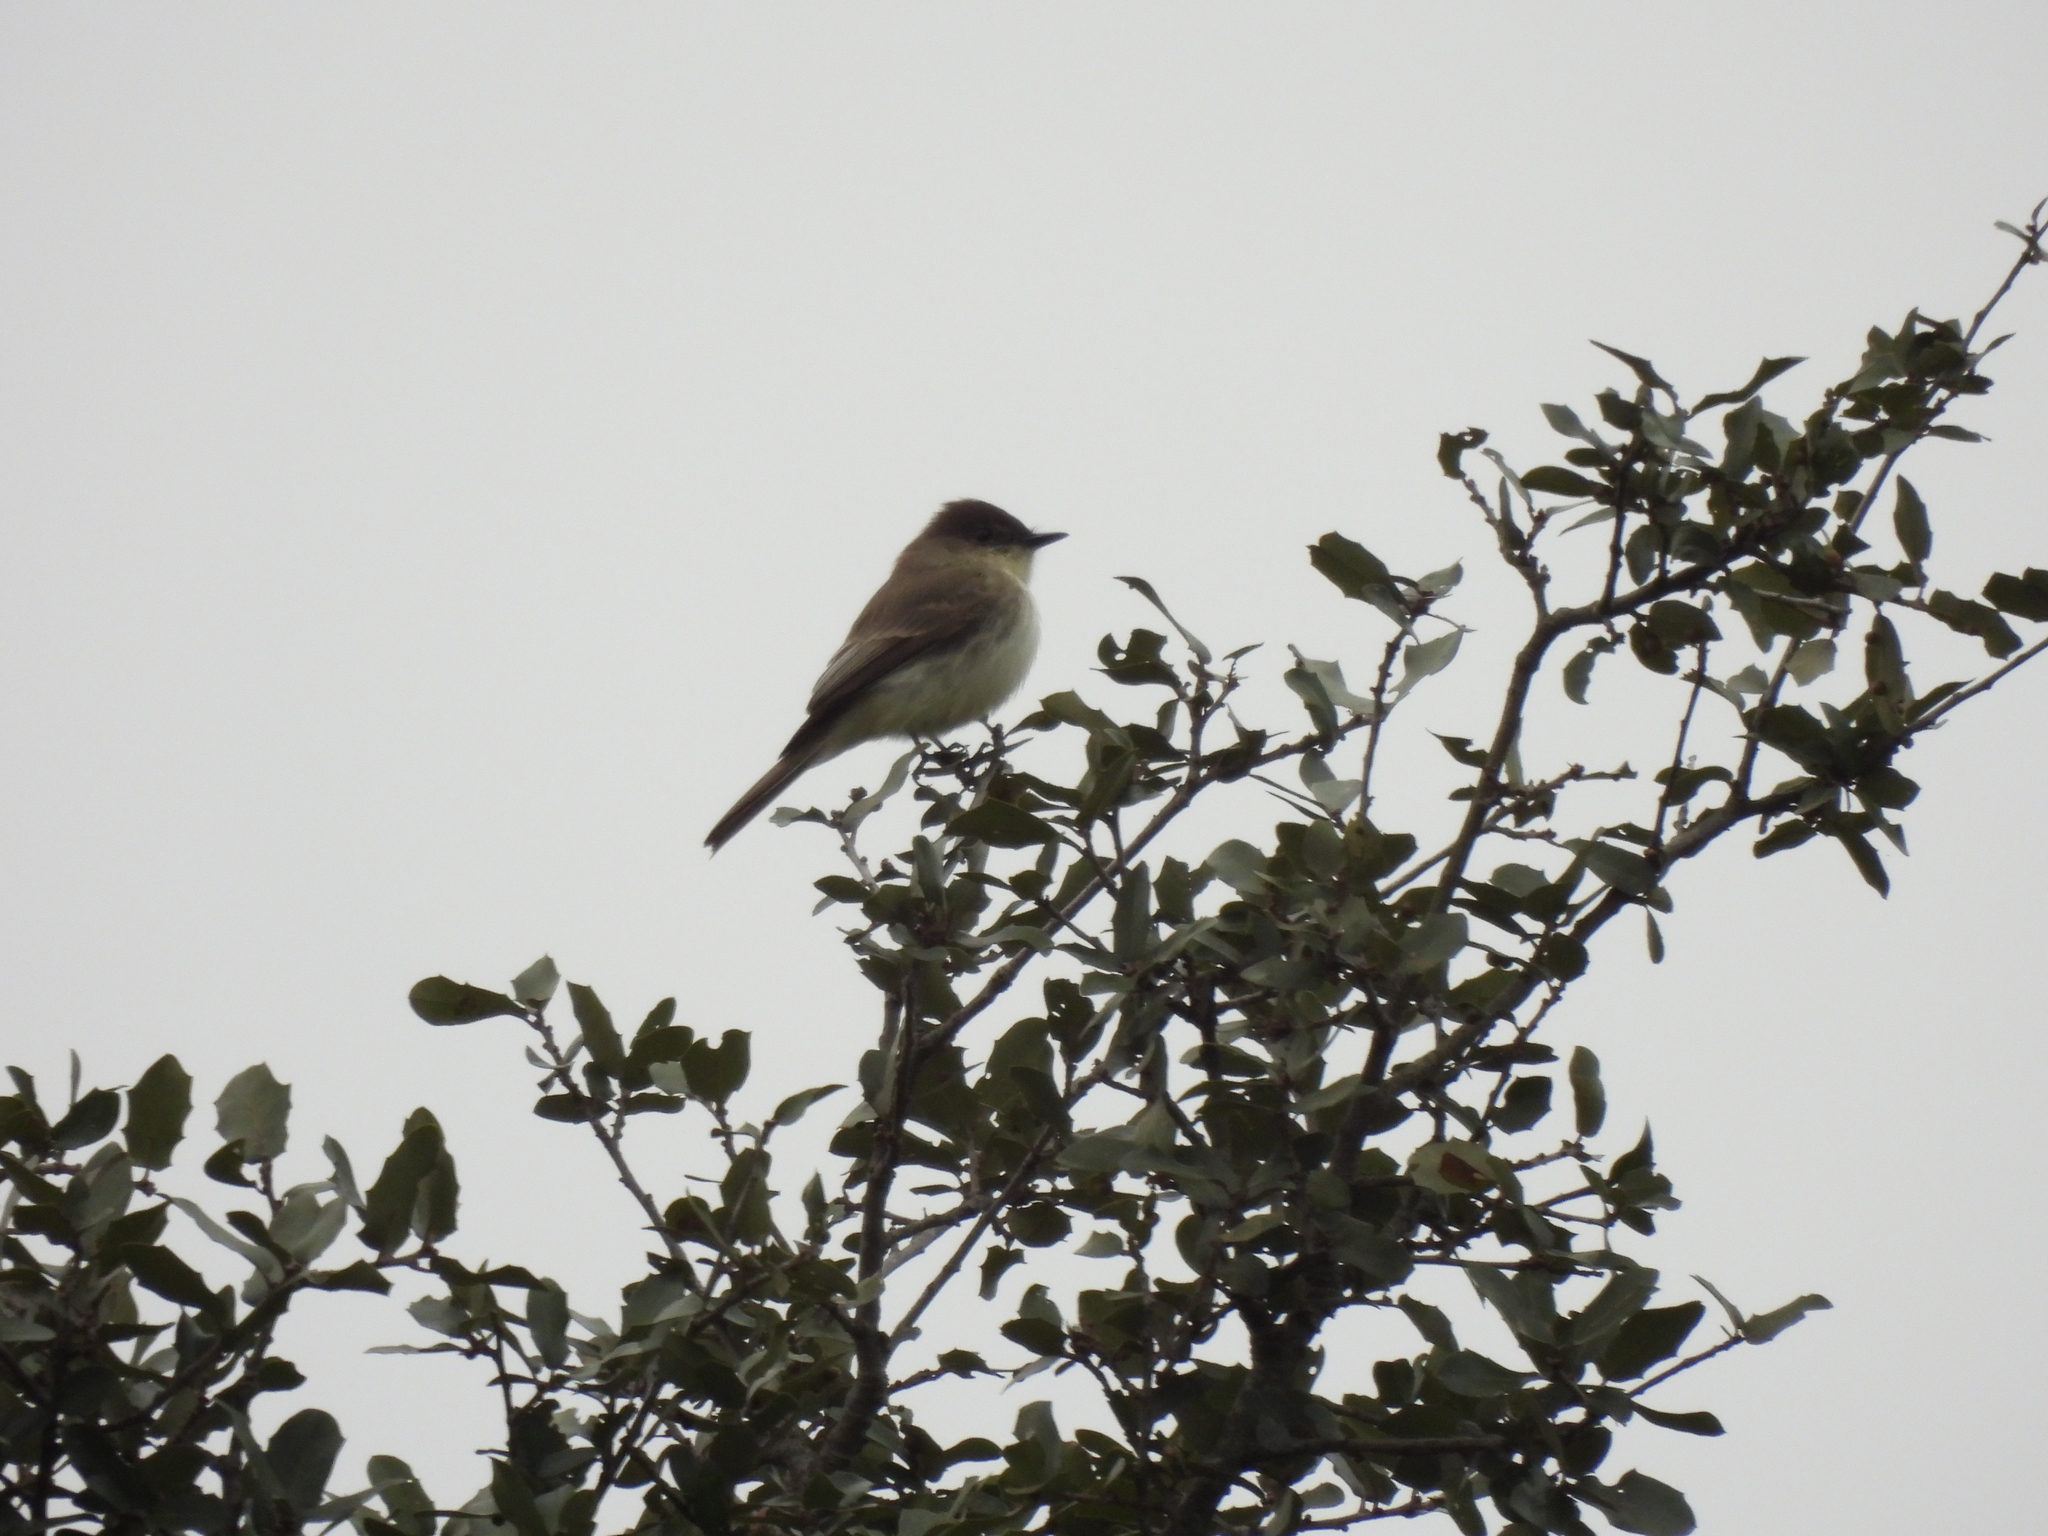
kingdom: Animalia
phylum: Chordata
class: Aves
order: Passeriformes
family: Tyrannidae
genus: Sayornis
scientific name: Sayornis phoebe
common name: Eastern phoebe
